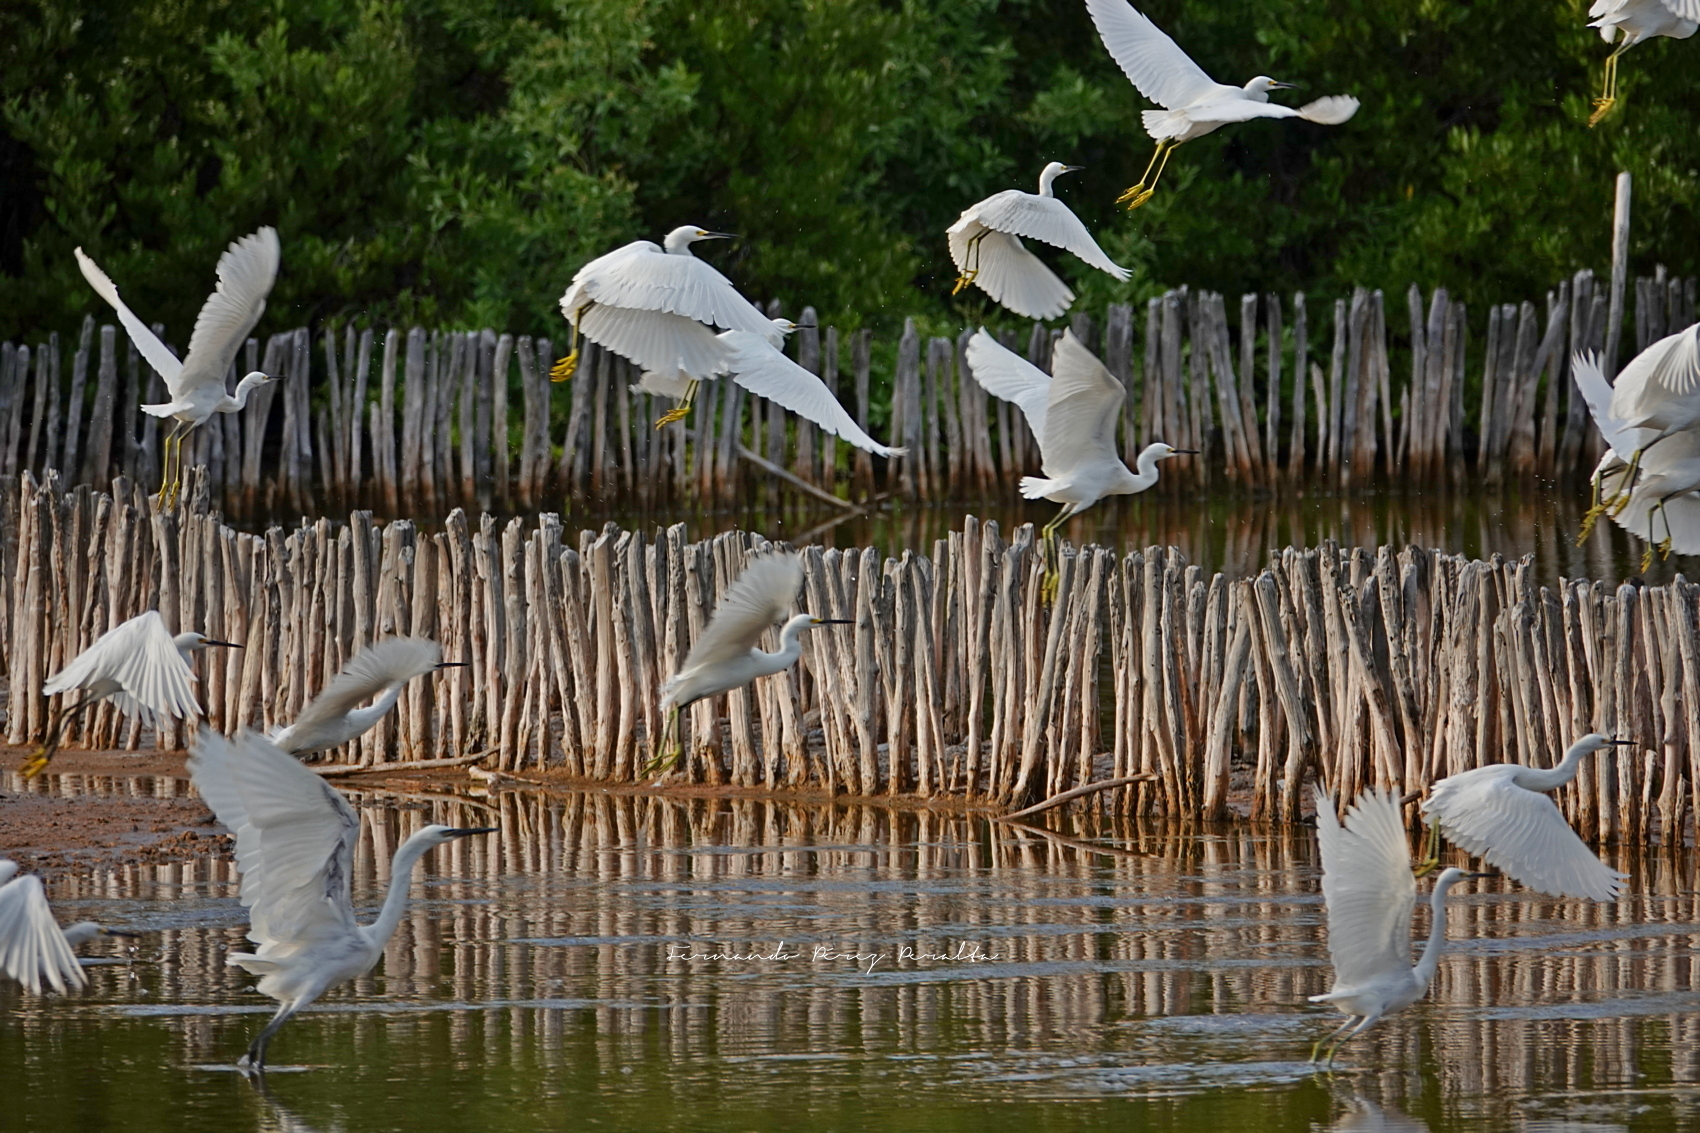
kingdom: Animalia
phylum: Chordata
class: Aves
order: Pelecaniformes
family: Ardeidae
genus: Egretta
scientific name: Egretta thula
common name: Snowy egret
